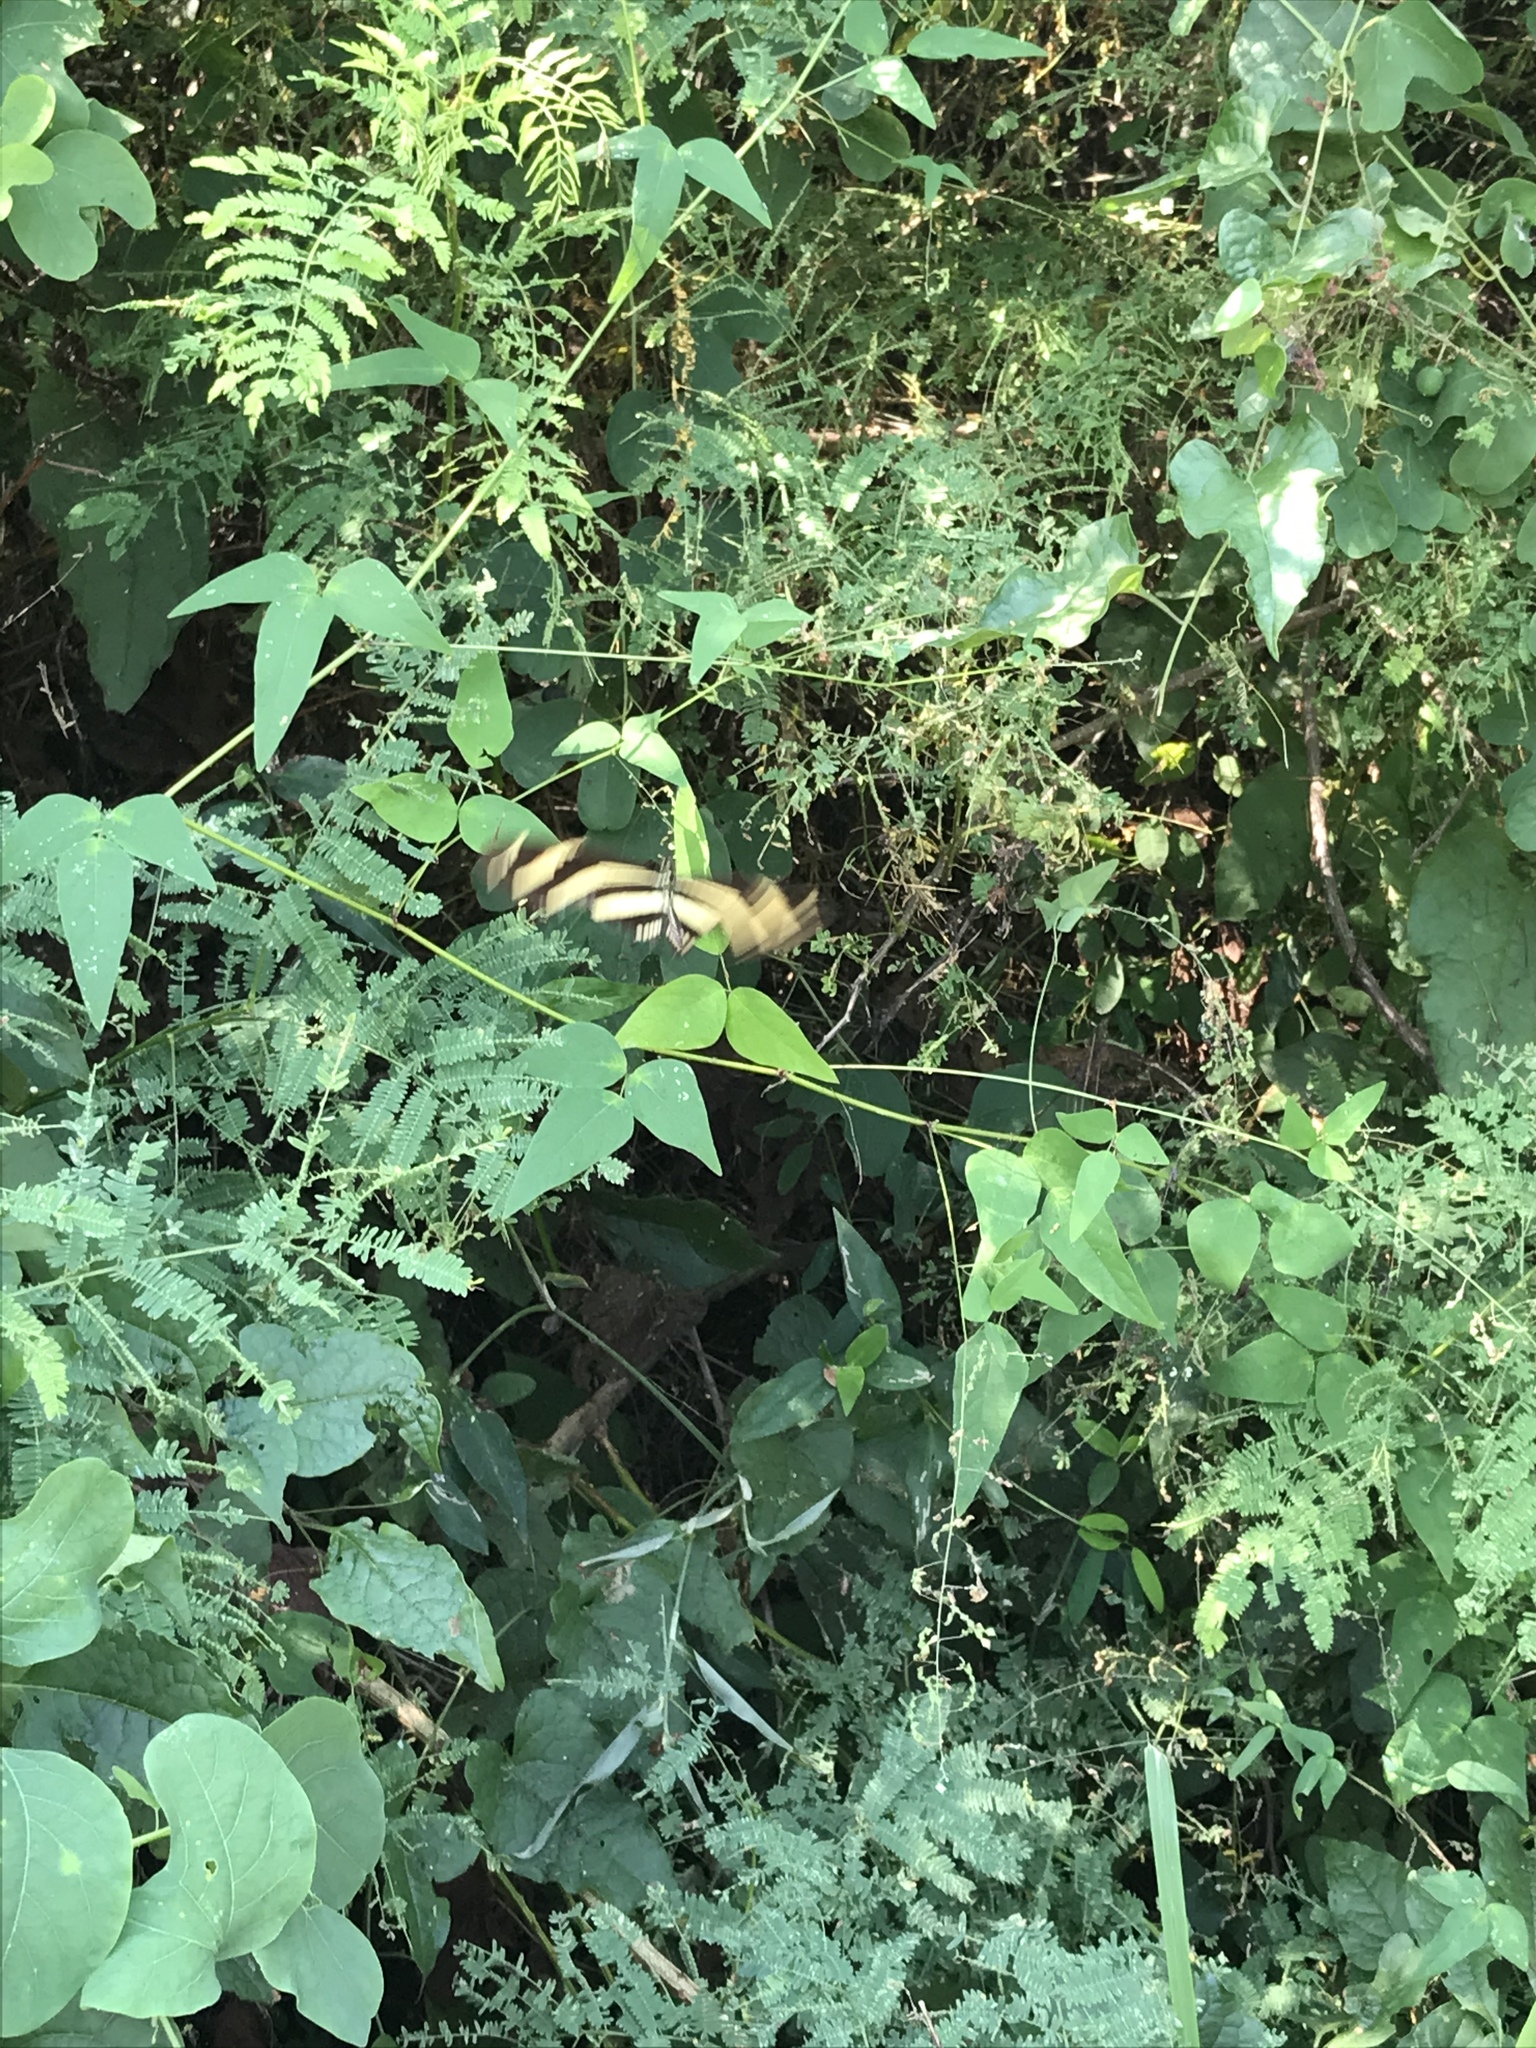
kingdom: Animalia
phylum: Arthropoda
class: Insecta
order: Lepidoptera
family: Nymphalidae
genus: Heliconius
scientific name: Heliconius charithonia
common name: Zebra long wing
